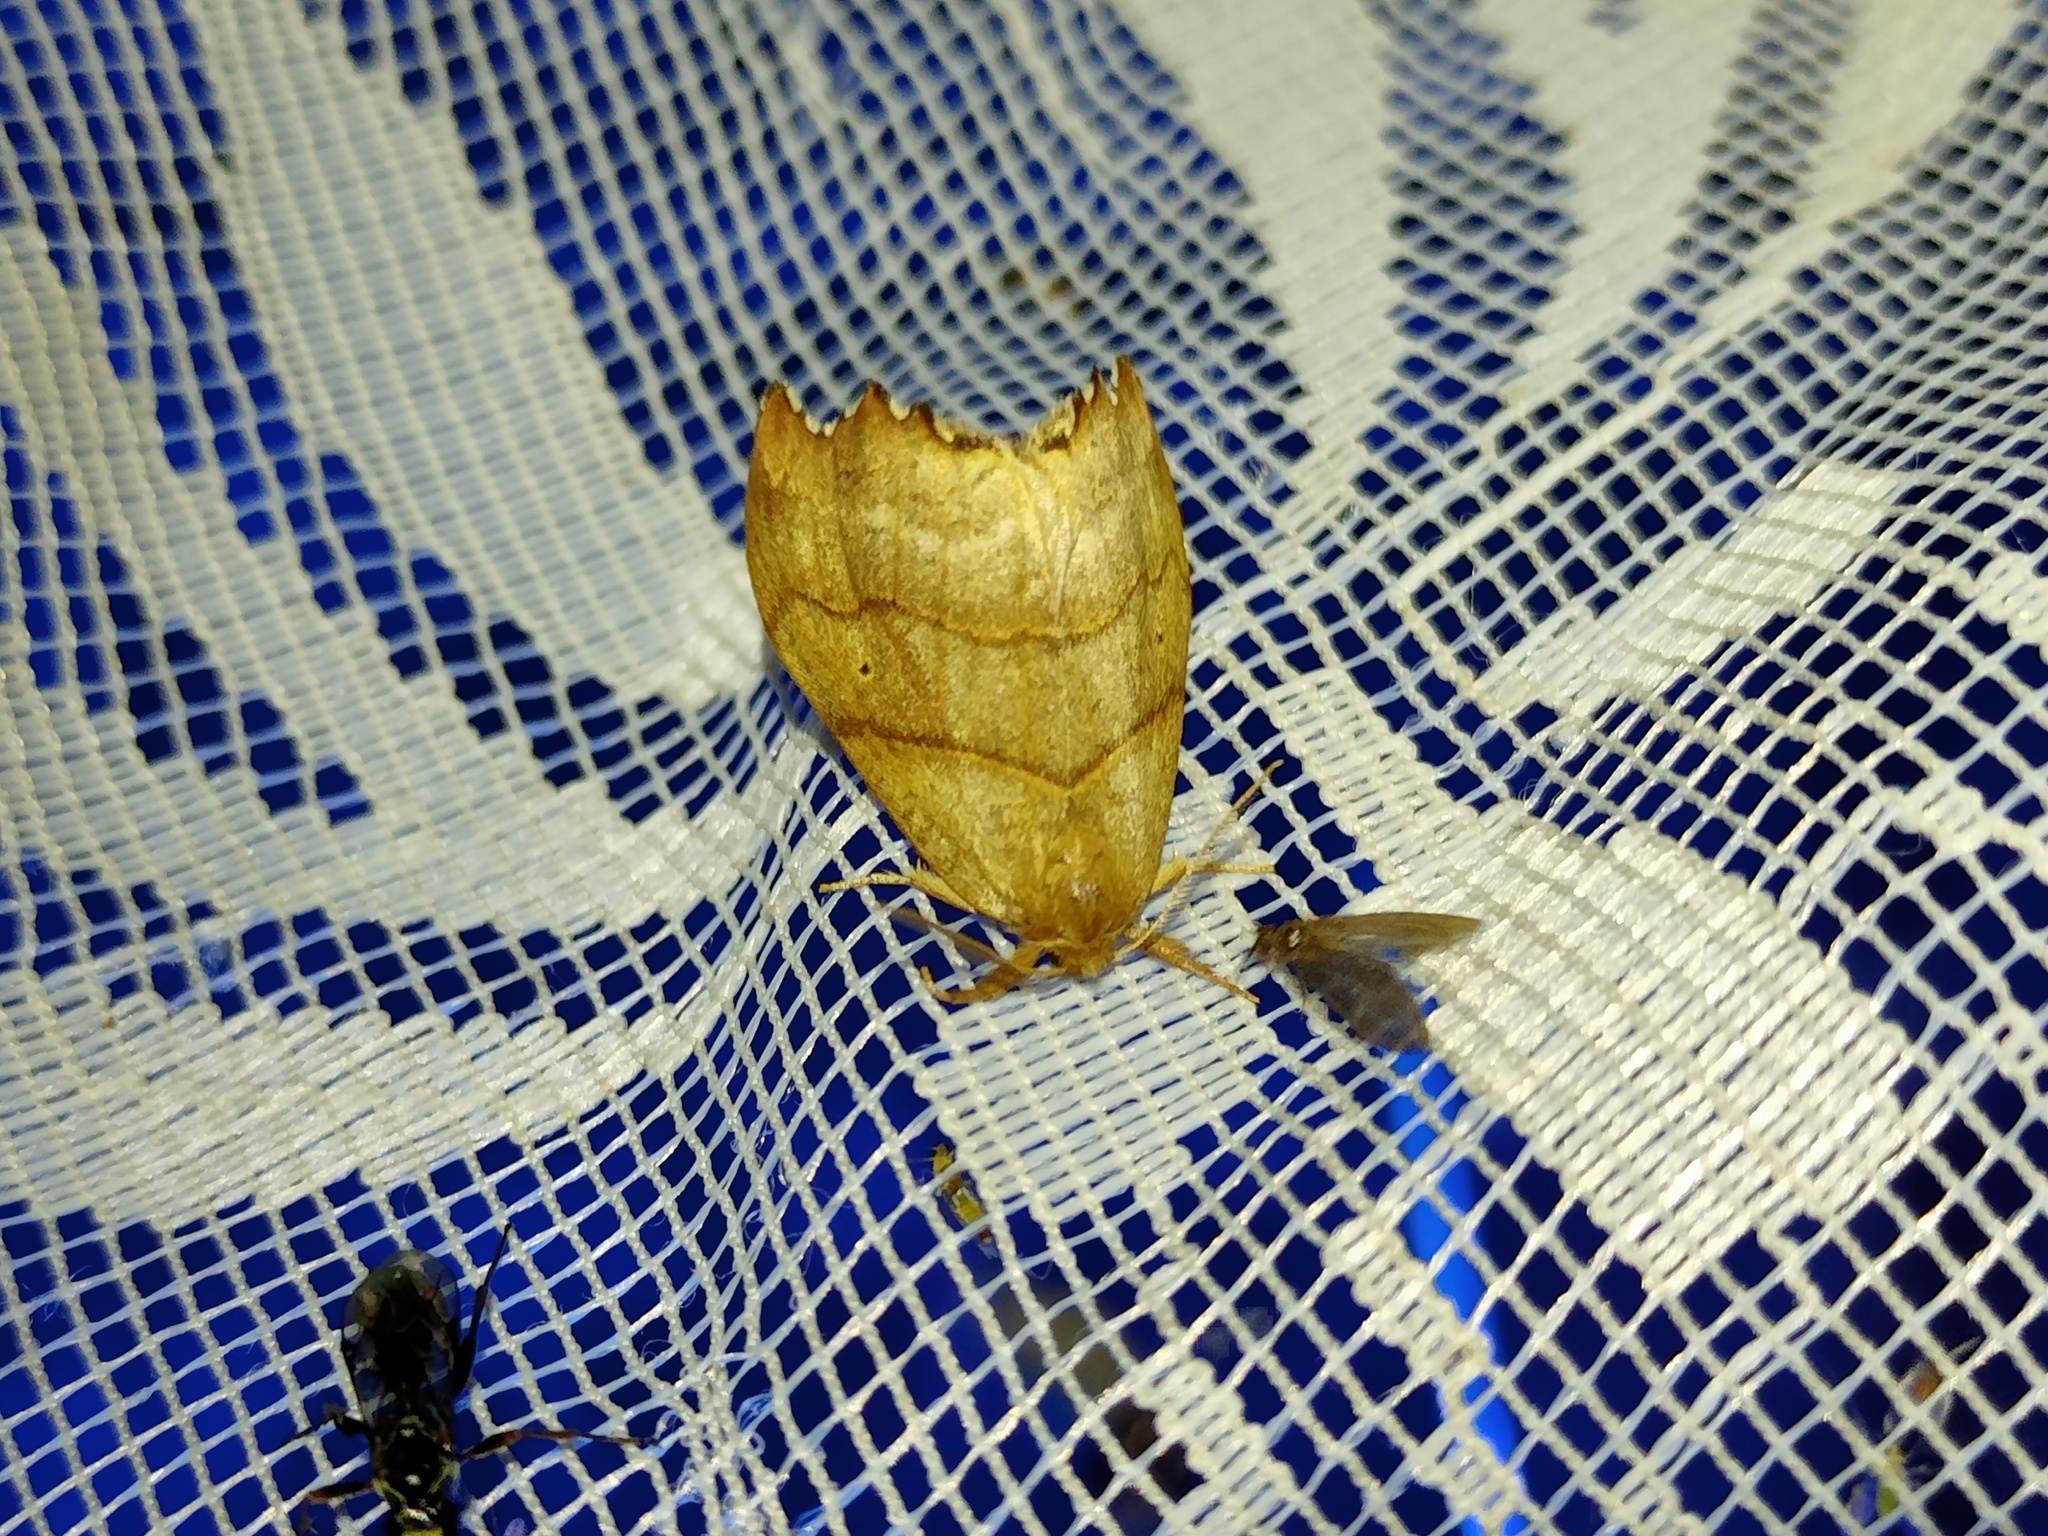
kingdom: Animalia
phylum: Arthropoda
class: Insecta
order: Lepidoptera
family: Drepanidae
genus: Falcaria
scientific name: Falcaria lacertinaria
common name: Scalloped hook-tip
